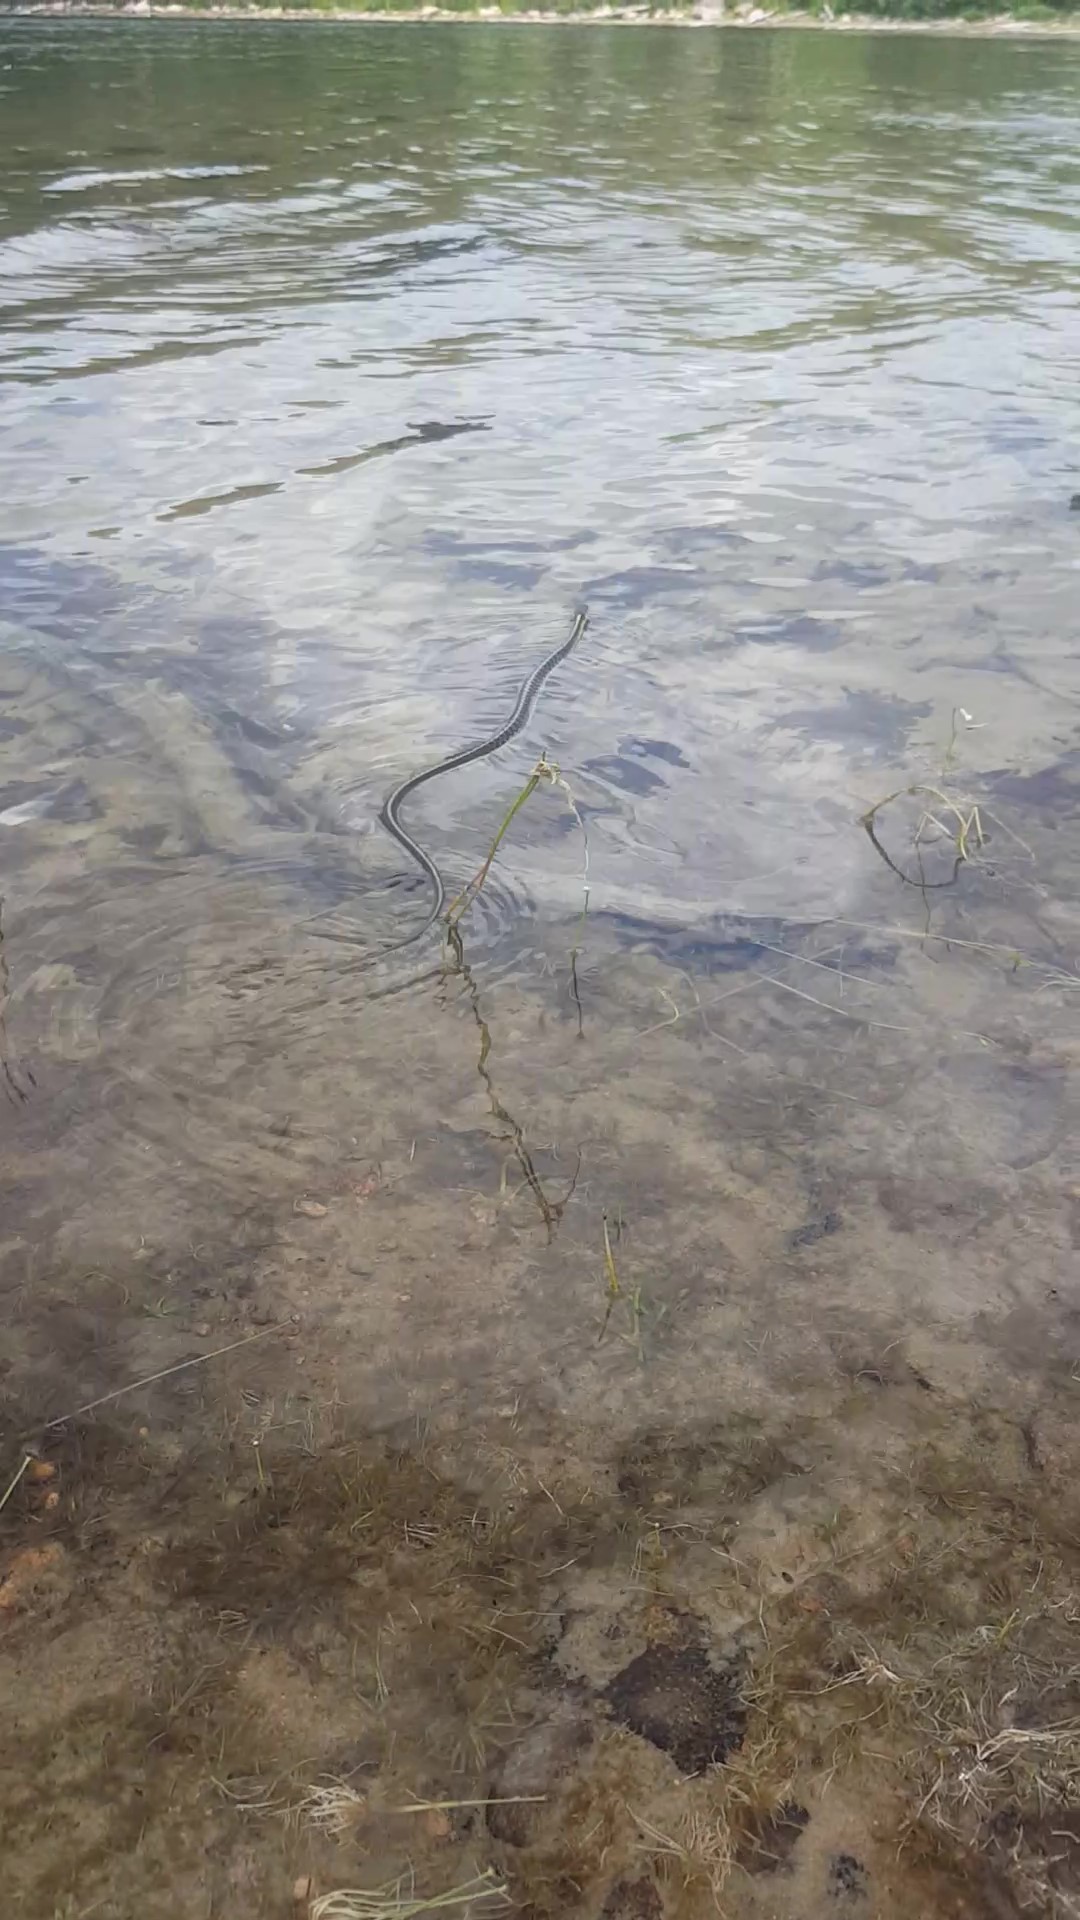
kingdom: Animalia
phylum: Chordata
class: Squamata
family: Colubridae
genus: Thamnophis
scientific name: Thamnophis sirtalis
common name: Common garter snake
